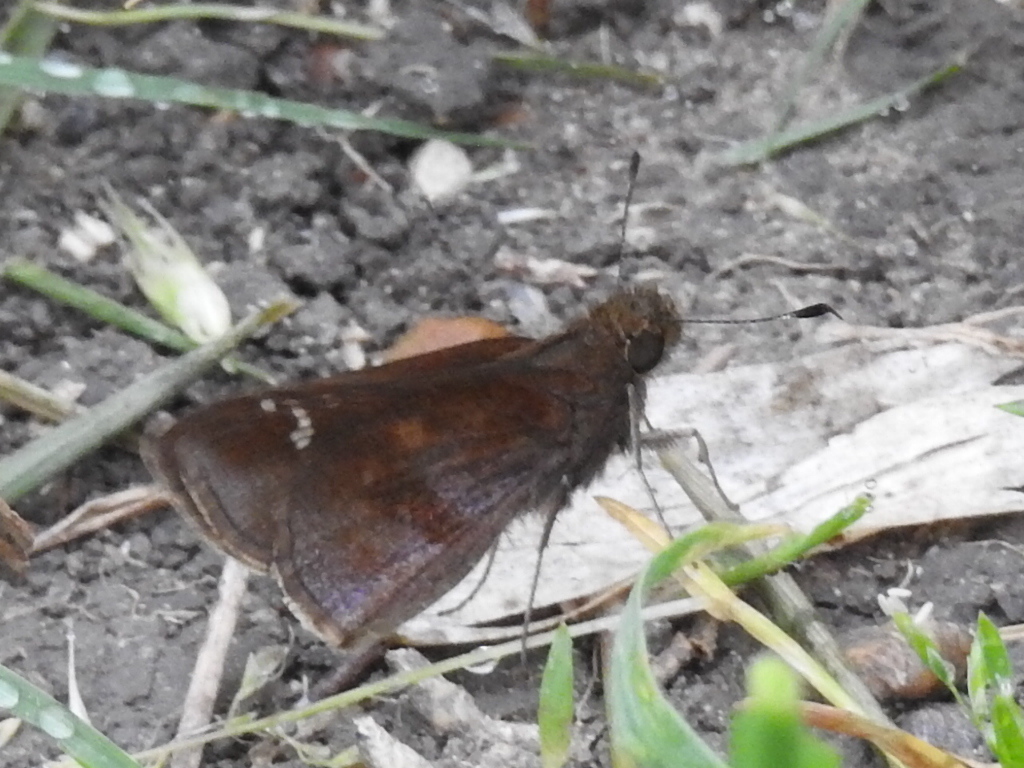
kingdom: Animalia
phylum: Arthropoda
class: Insecta
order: Lepidoptera
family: Hesperiidae
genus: Lerema
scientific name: Lerema accius
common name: Clouded skipper
